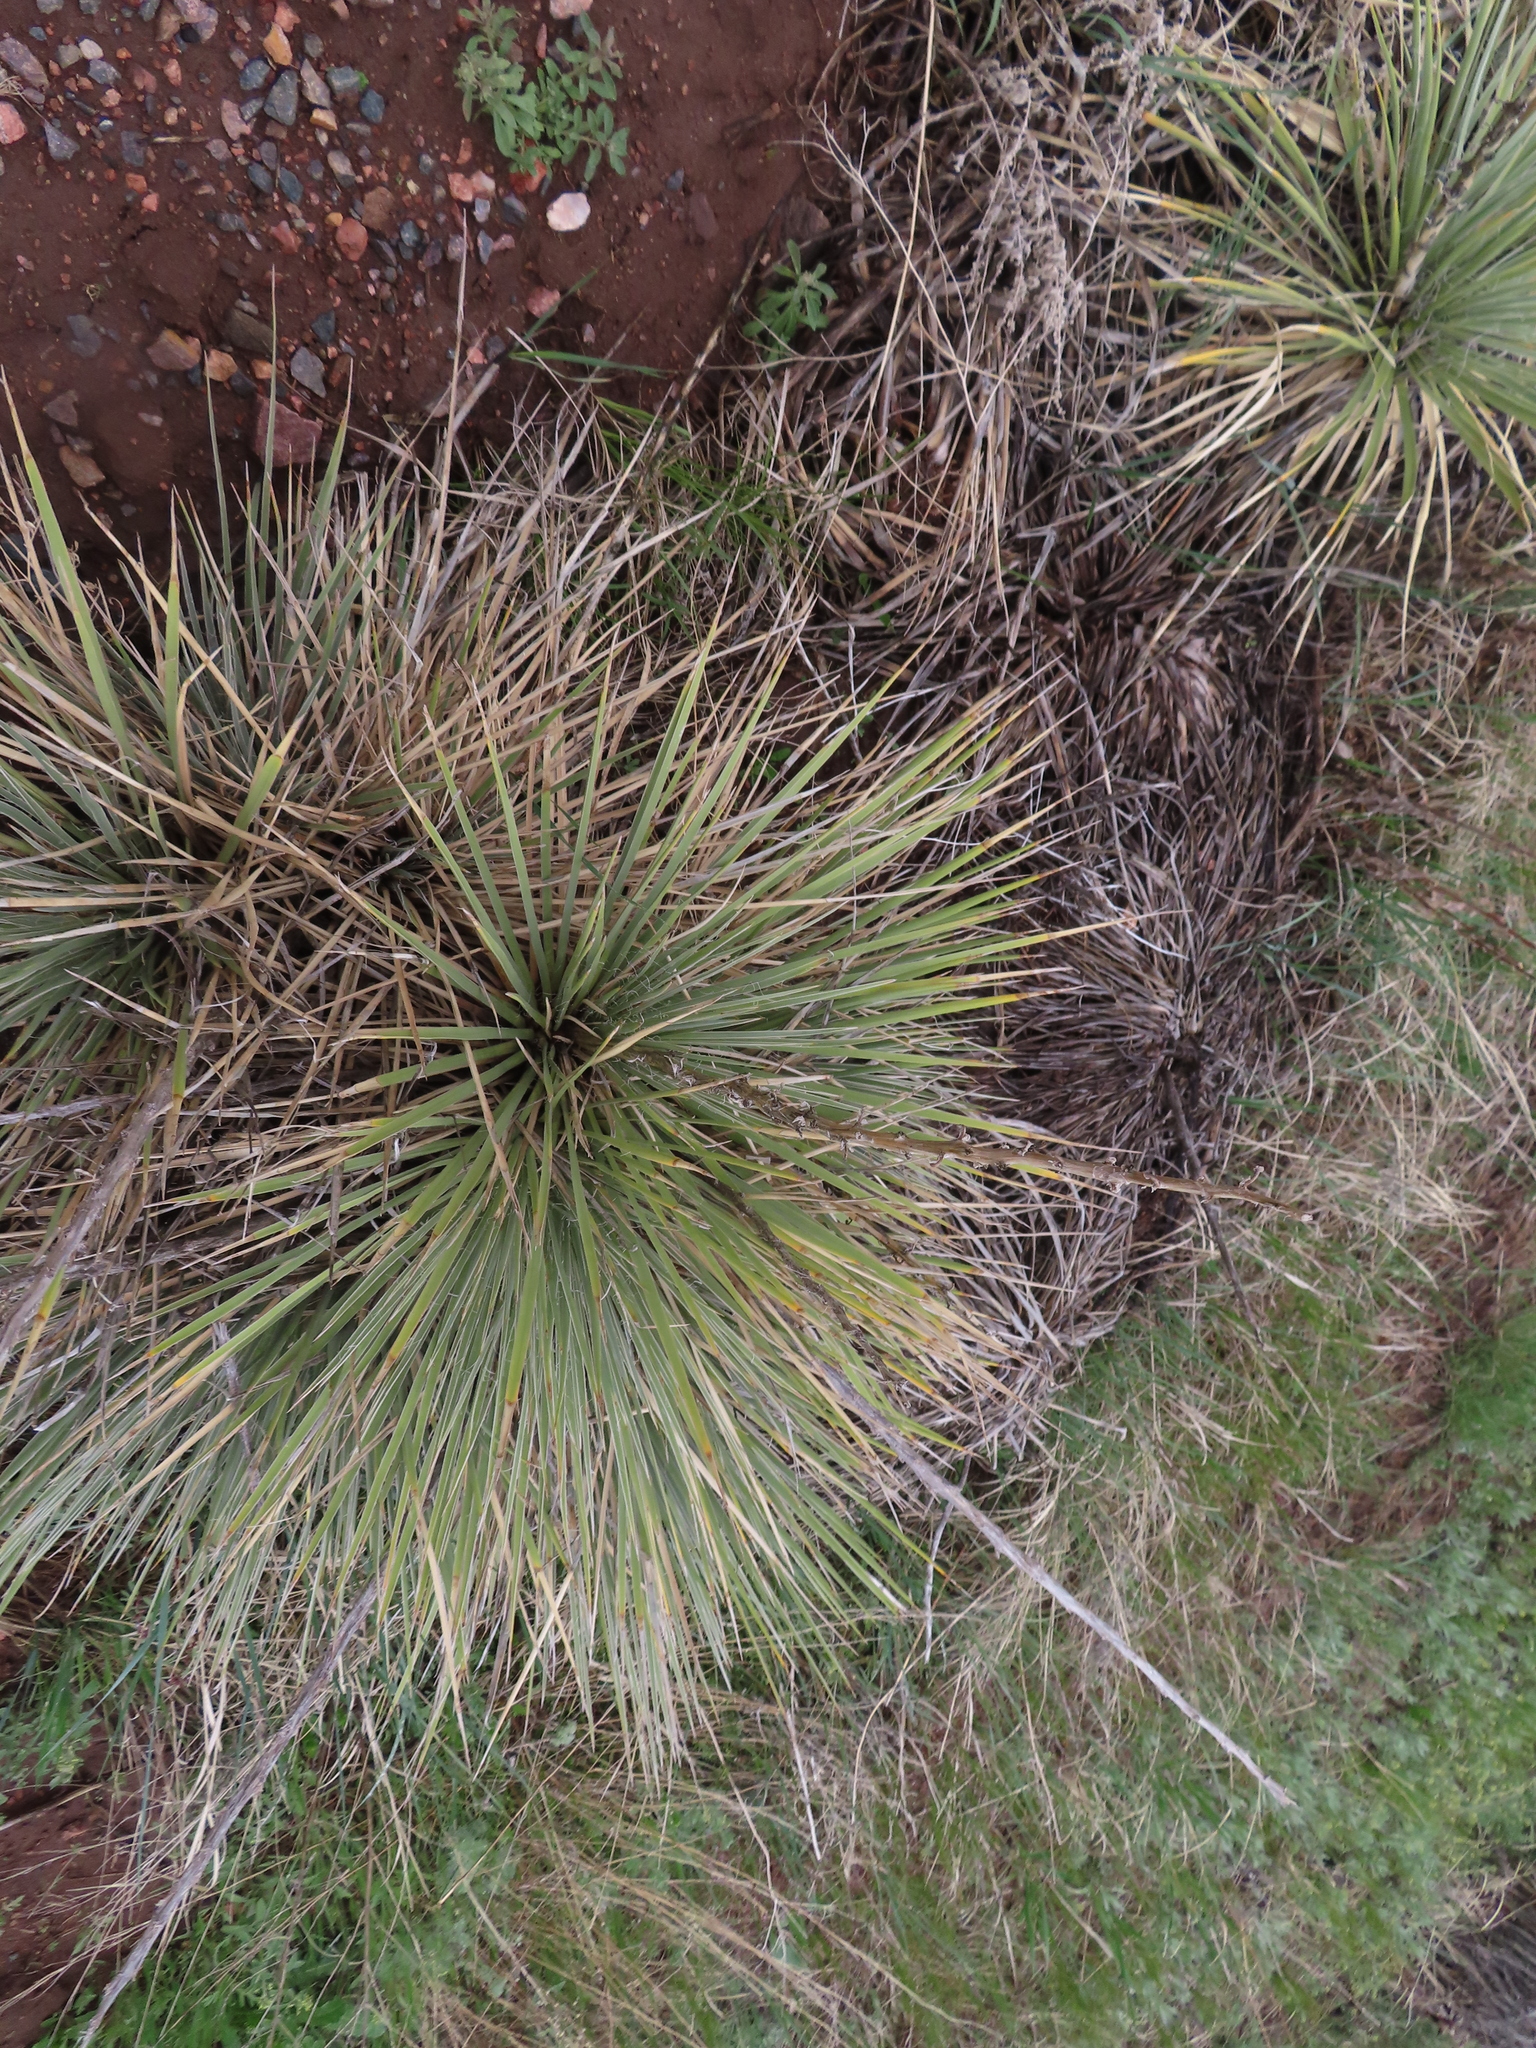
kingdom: Plantae
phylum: Tracheophyta
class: Liliopsida
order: Asparagales
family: Asparagaceae
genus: Yucca
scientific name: Yucca glauca
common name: Great plains yucca
